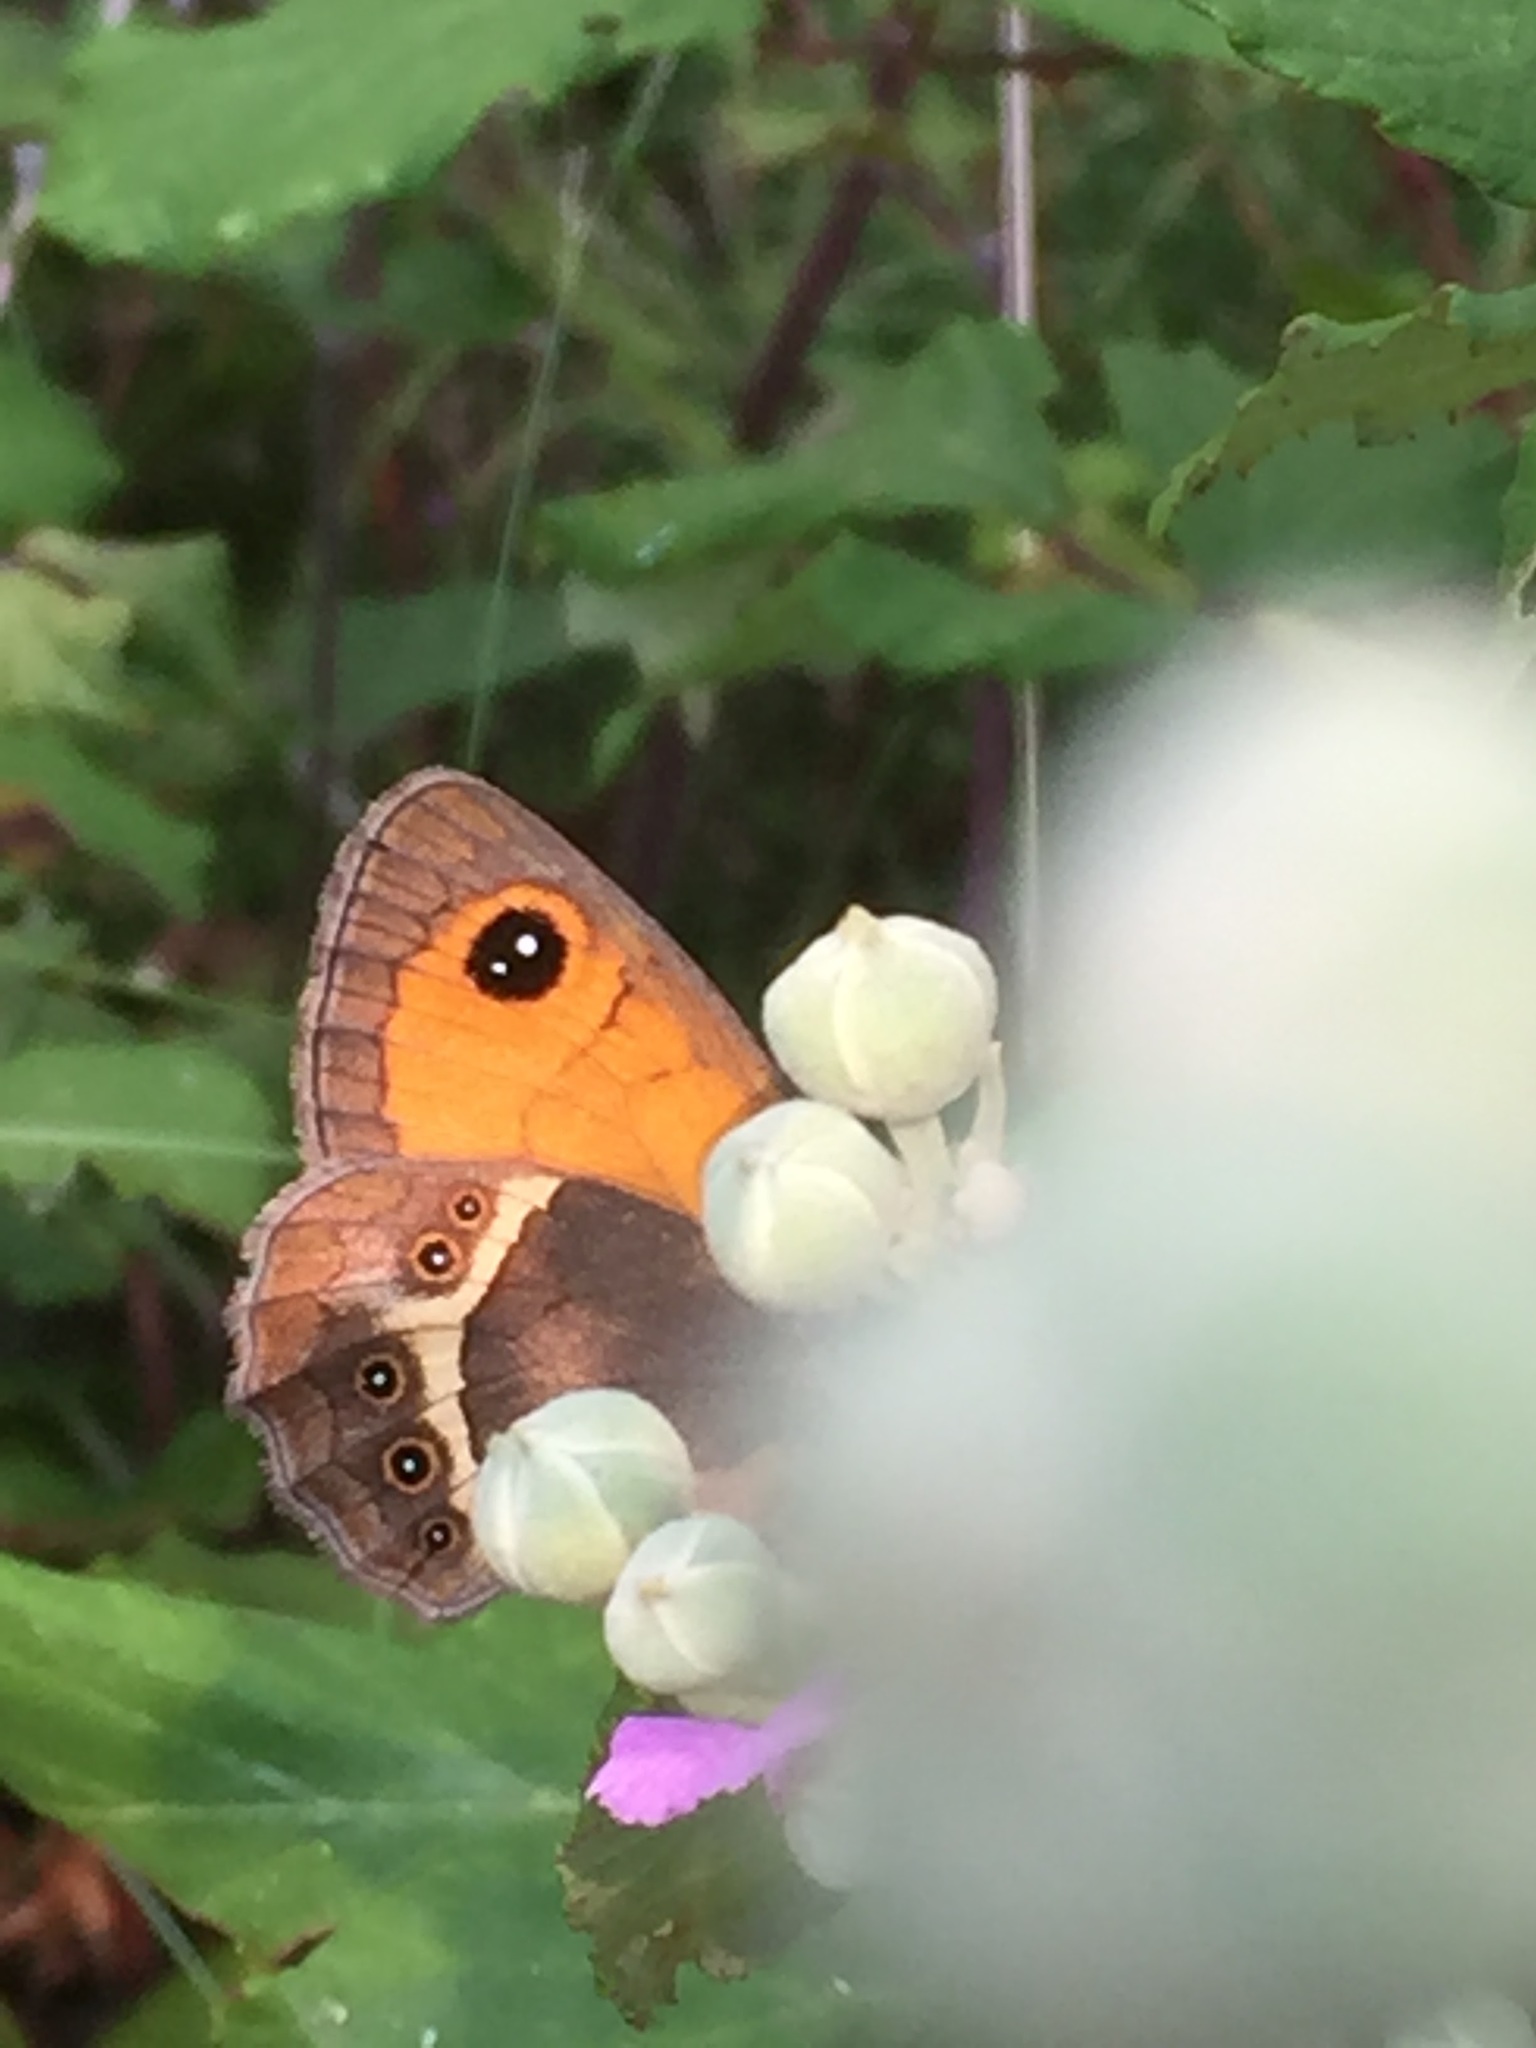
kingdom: Animalia
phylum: Arthropoda
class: Insecta
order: Lepidoptera
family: Nymphalidae
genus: Pyronia
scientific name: Pyronia bathseba
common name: Spanish gatekeeper
